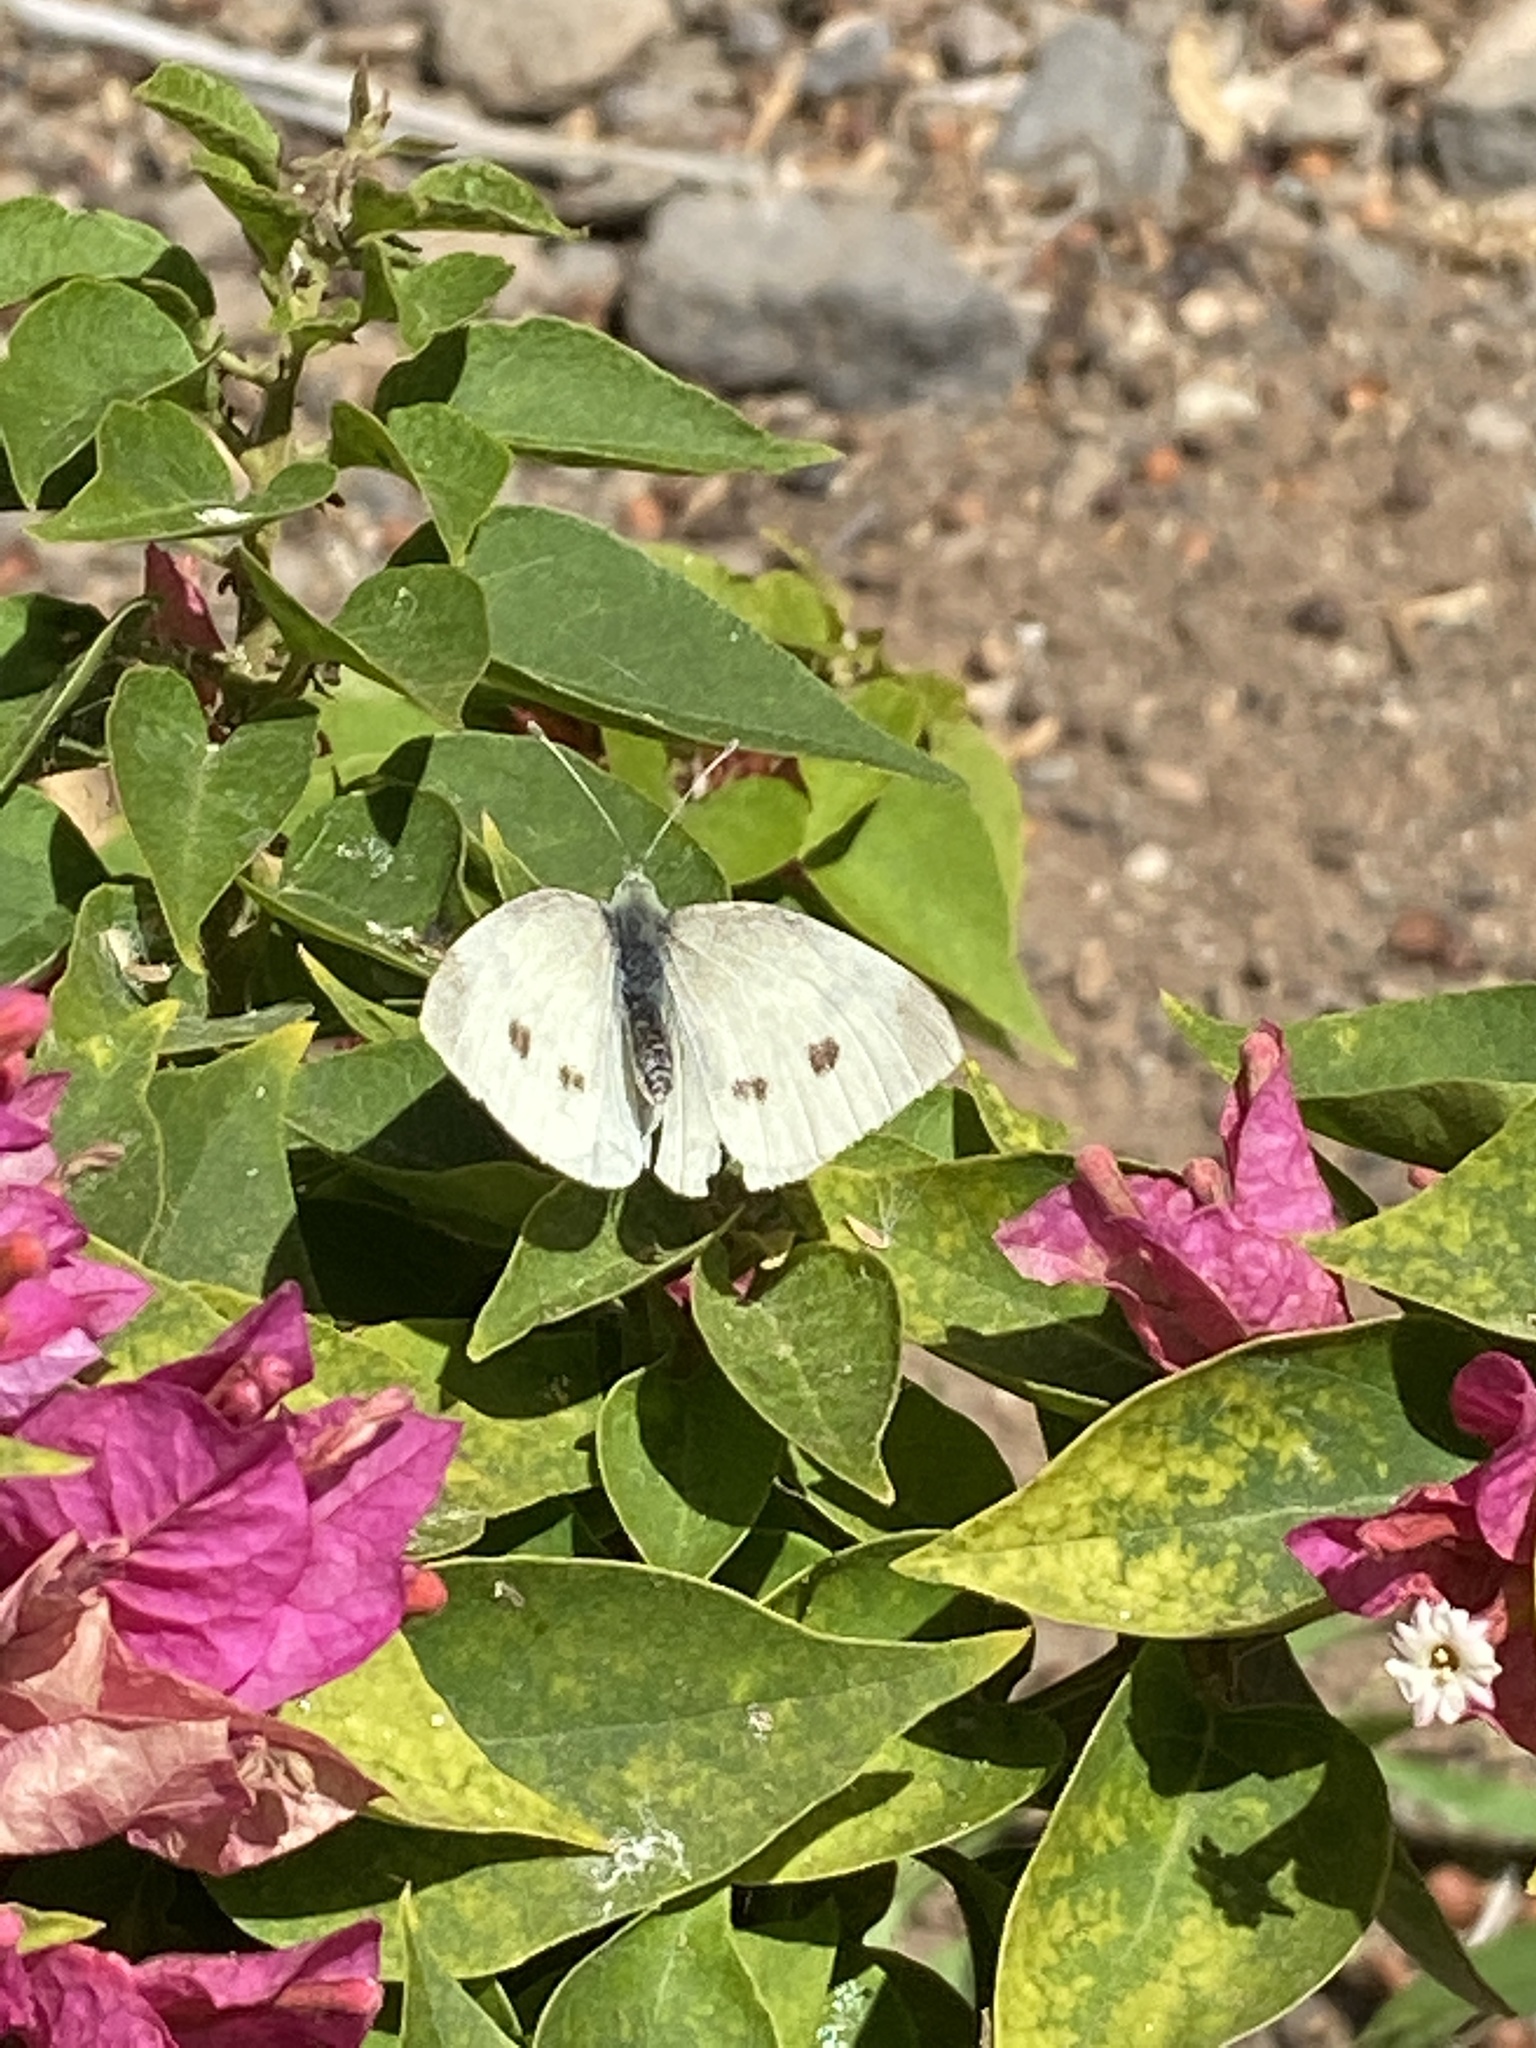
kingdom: Animalia
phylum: Arthropoda
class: Insecta
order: Lepidoptera
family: Pieridae
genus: Pieris
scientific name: Pieris rapae
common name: Small white
